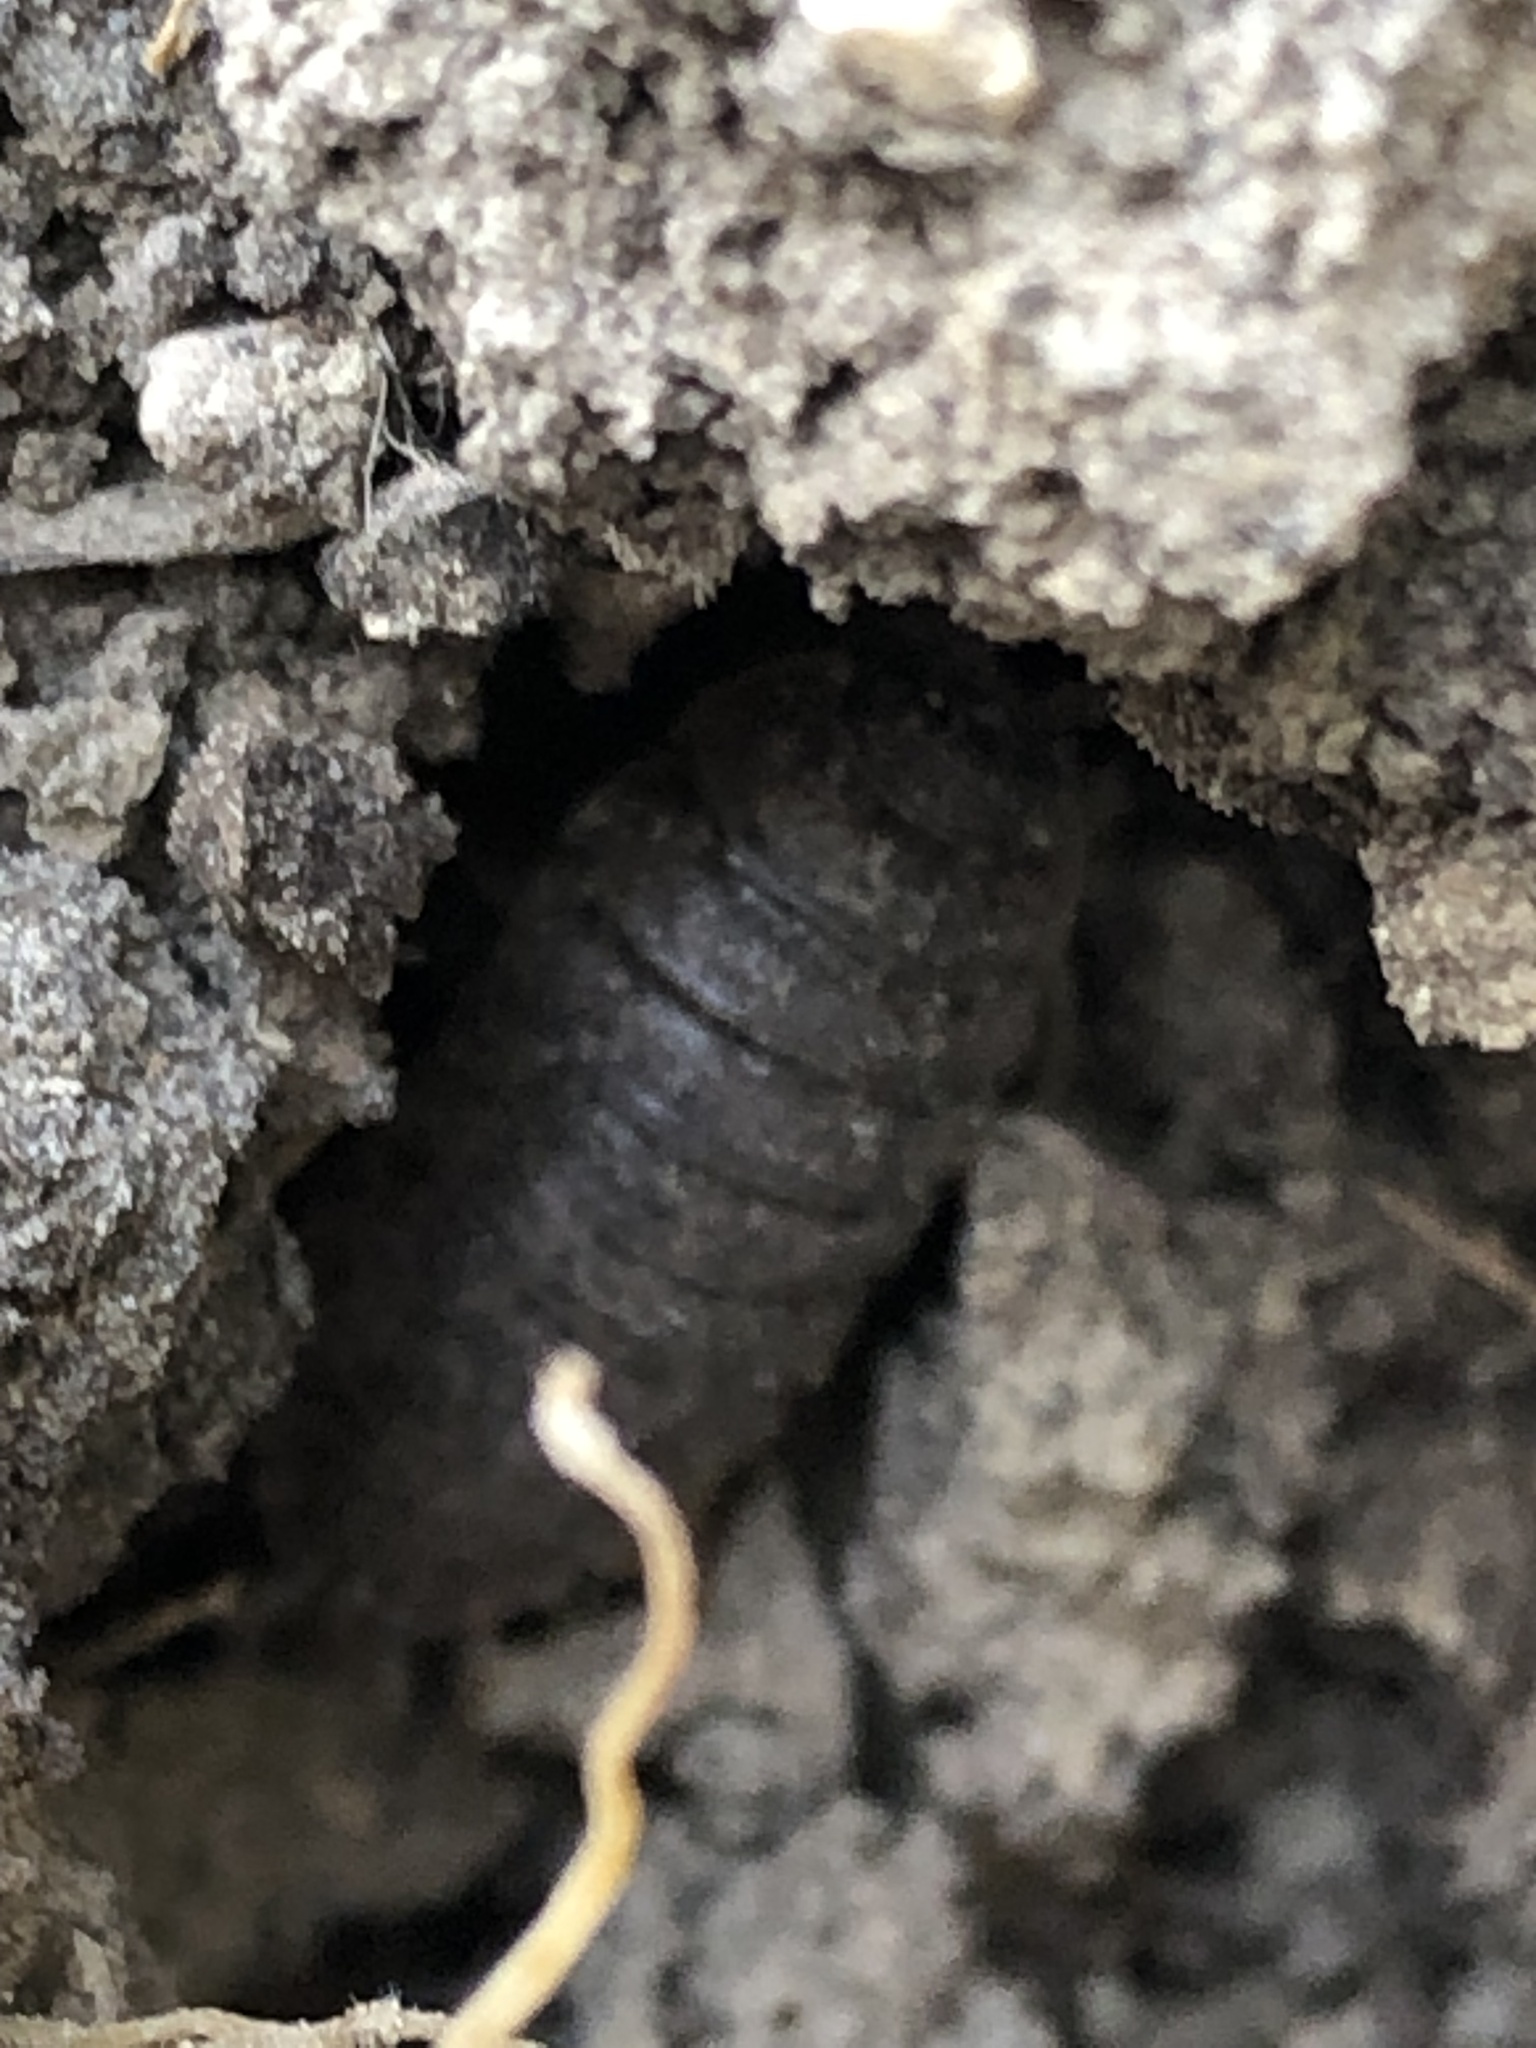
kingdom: Animalia
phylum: Arthropoda
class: Malacostraca
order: Isopoda
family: Porcellionidae
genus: Porcellio
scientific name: Porcellio scaber
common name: Common rough woodlouse
